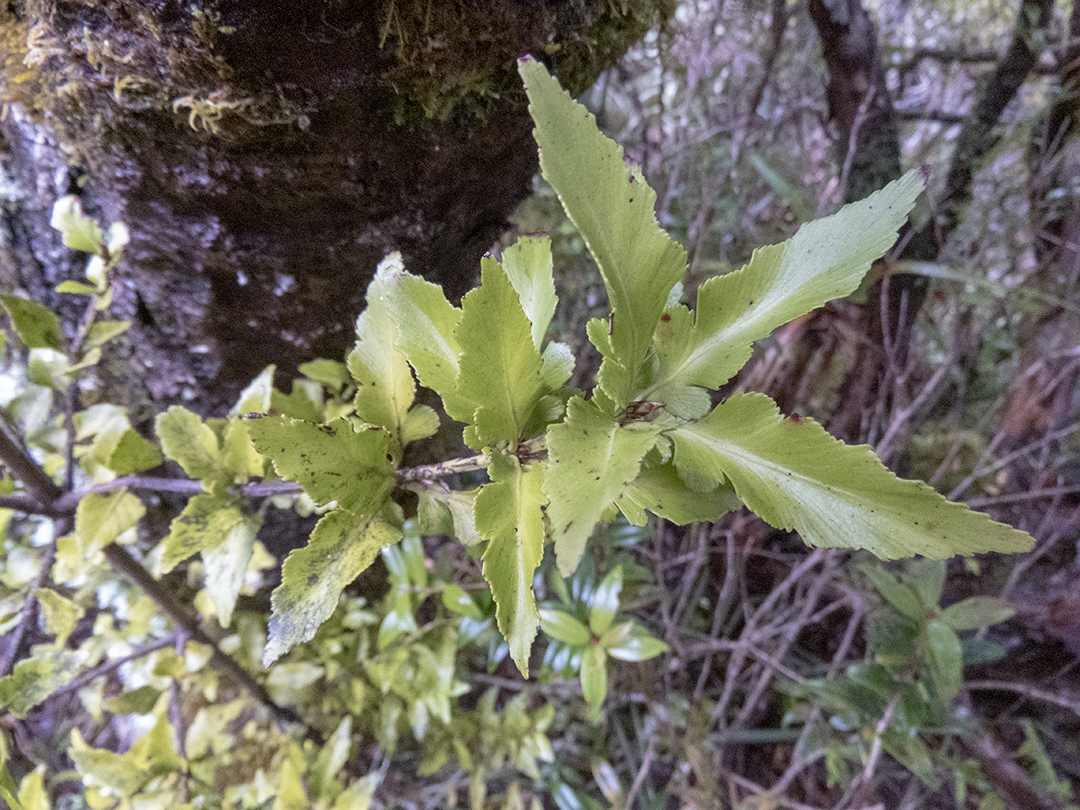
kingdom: Plantae
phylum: Tracheophyta
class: Pinopsida
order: Pinales
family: Phyllocladaceae
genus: Phyllocladus
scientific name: Phyllocladus trichomanoides
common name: Celery pine
